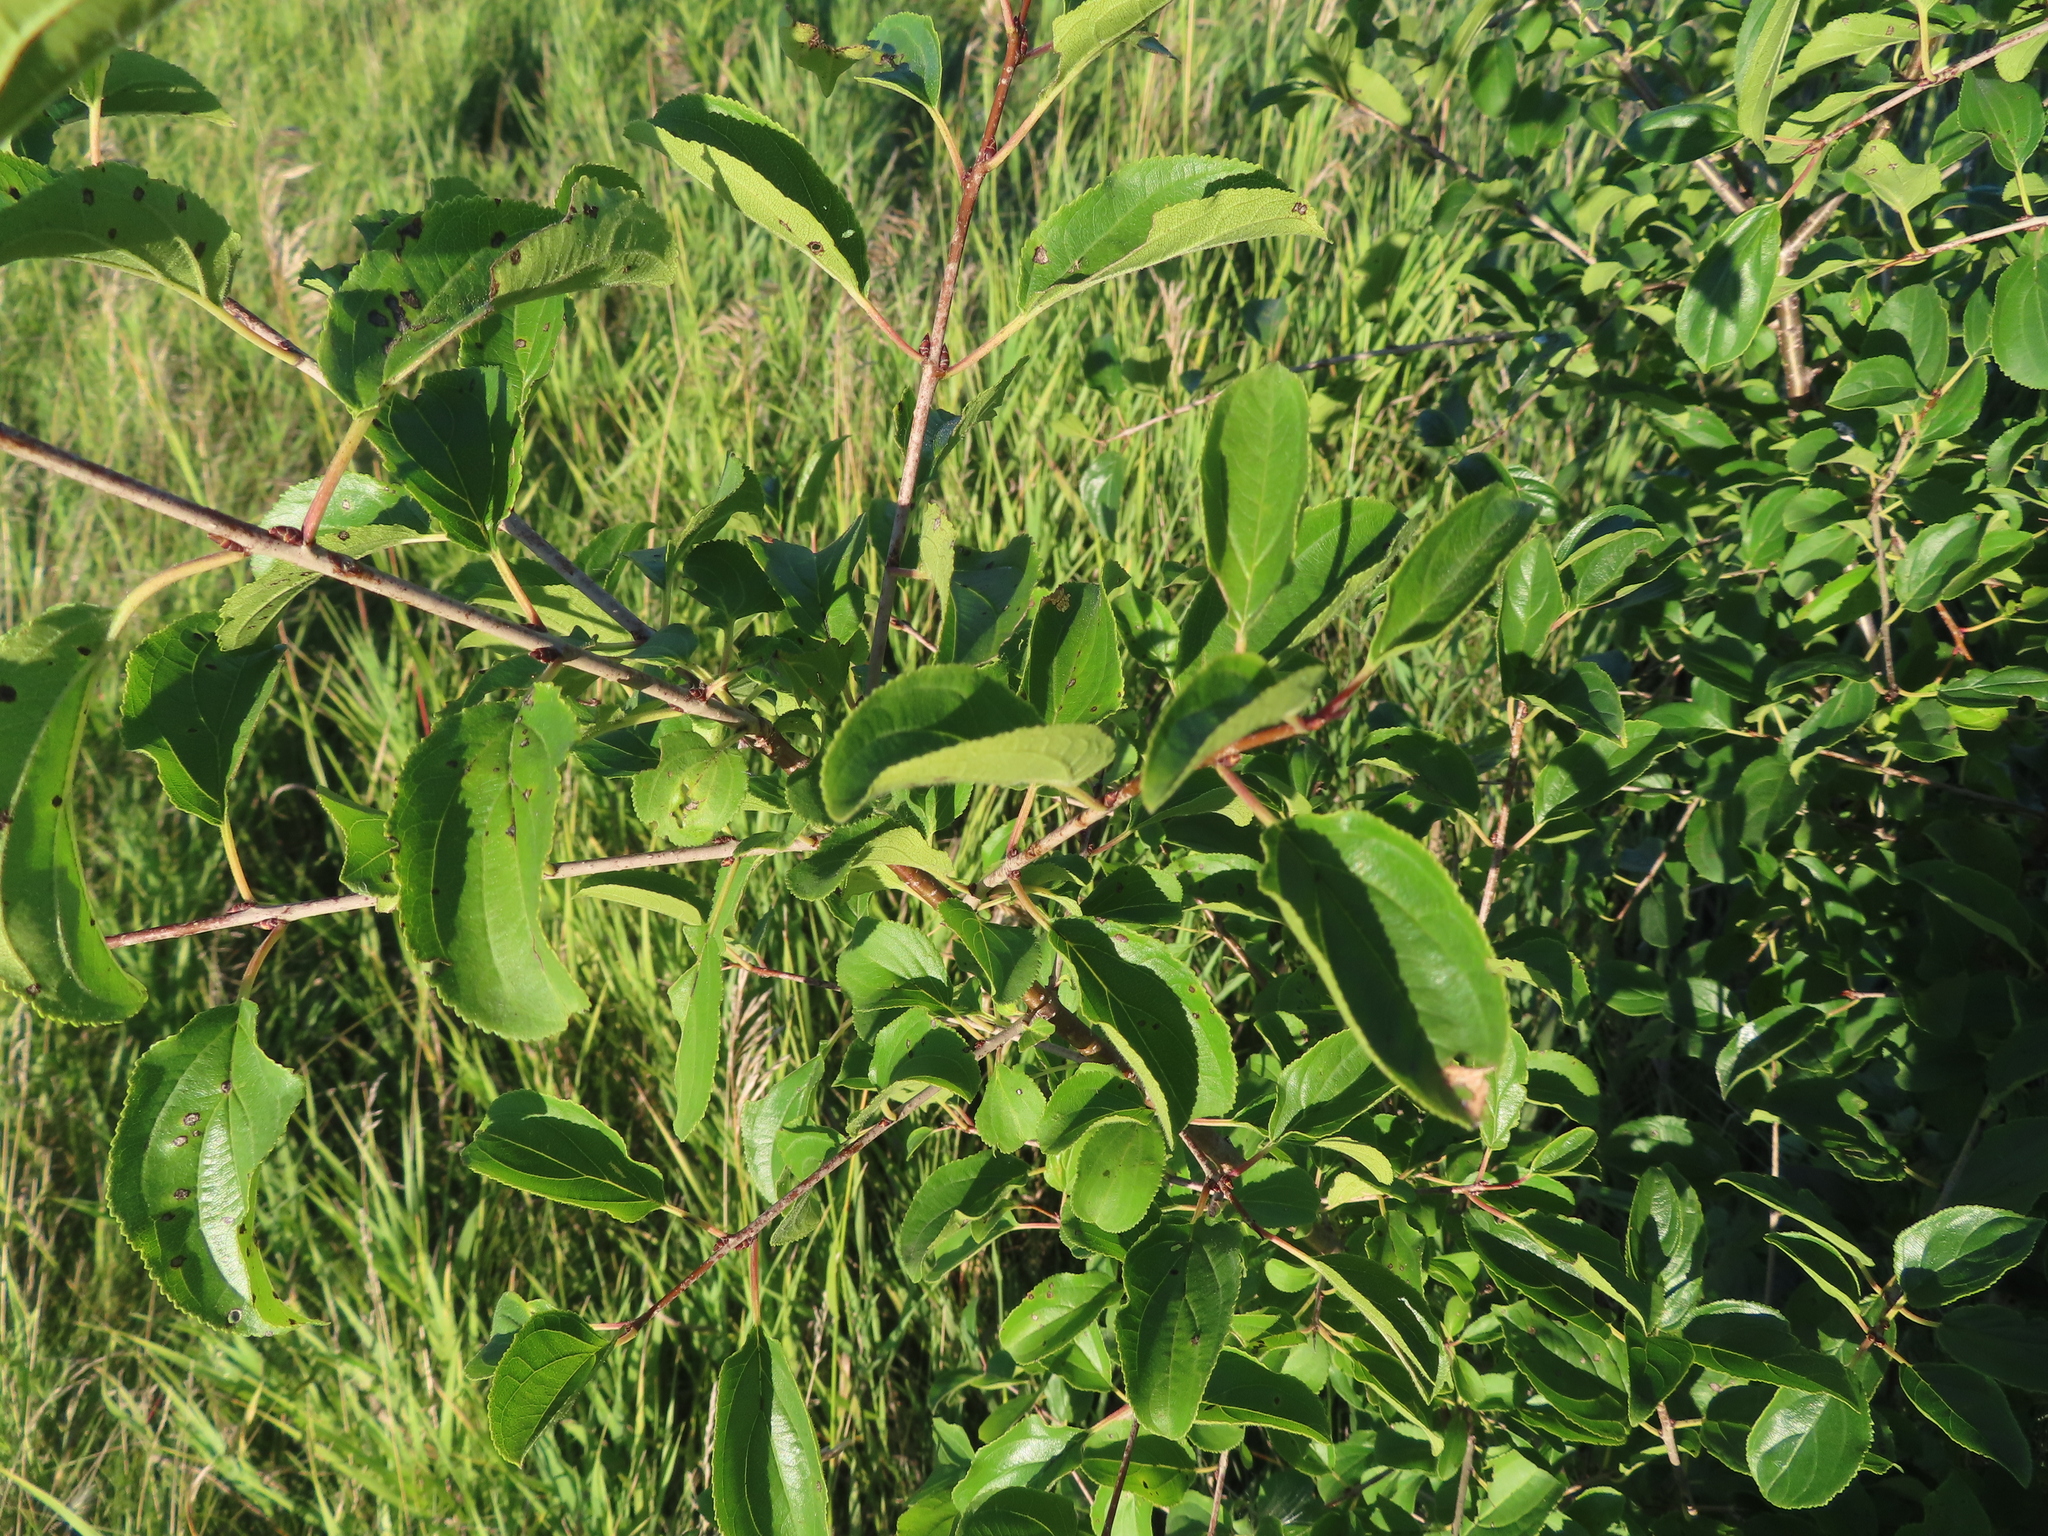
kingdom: Plantae
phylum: Tracheophyta
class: Magnoliopsida
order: Rosales
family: Rhamnaceae
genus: Rhamnus
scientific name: Rhamnus cathartica
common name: Common buckthorn
